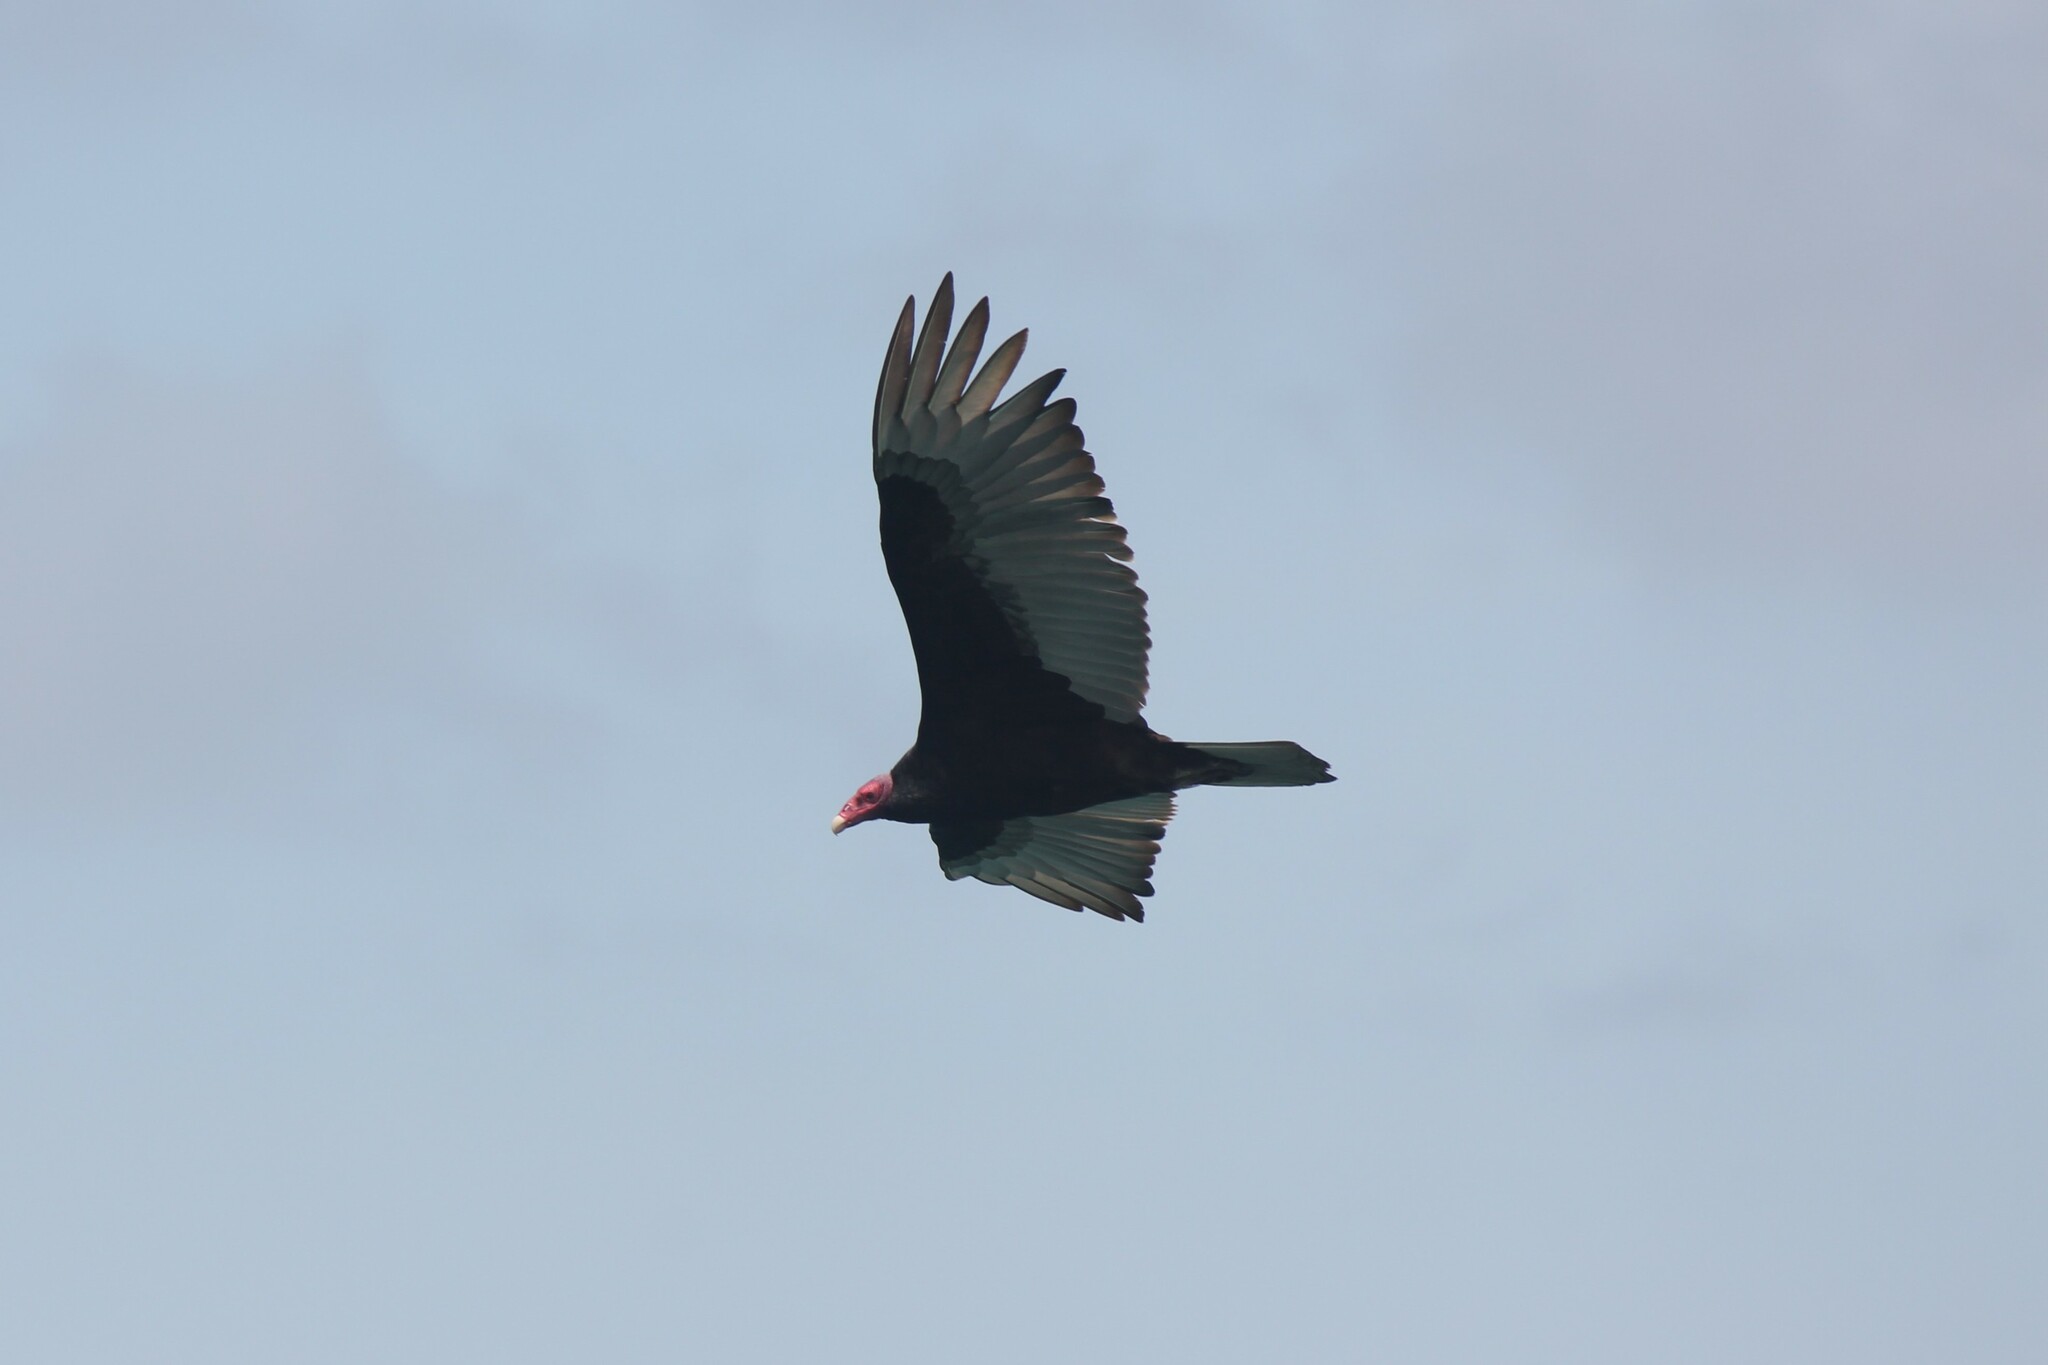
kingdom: Animalia
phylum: Chordata
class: Aves
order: Accipitriformes
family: Cathartidae
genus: Cathartes
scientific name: Cathartes aura
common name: Turkey vulture
